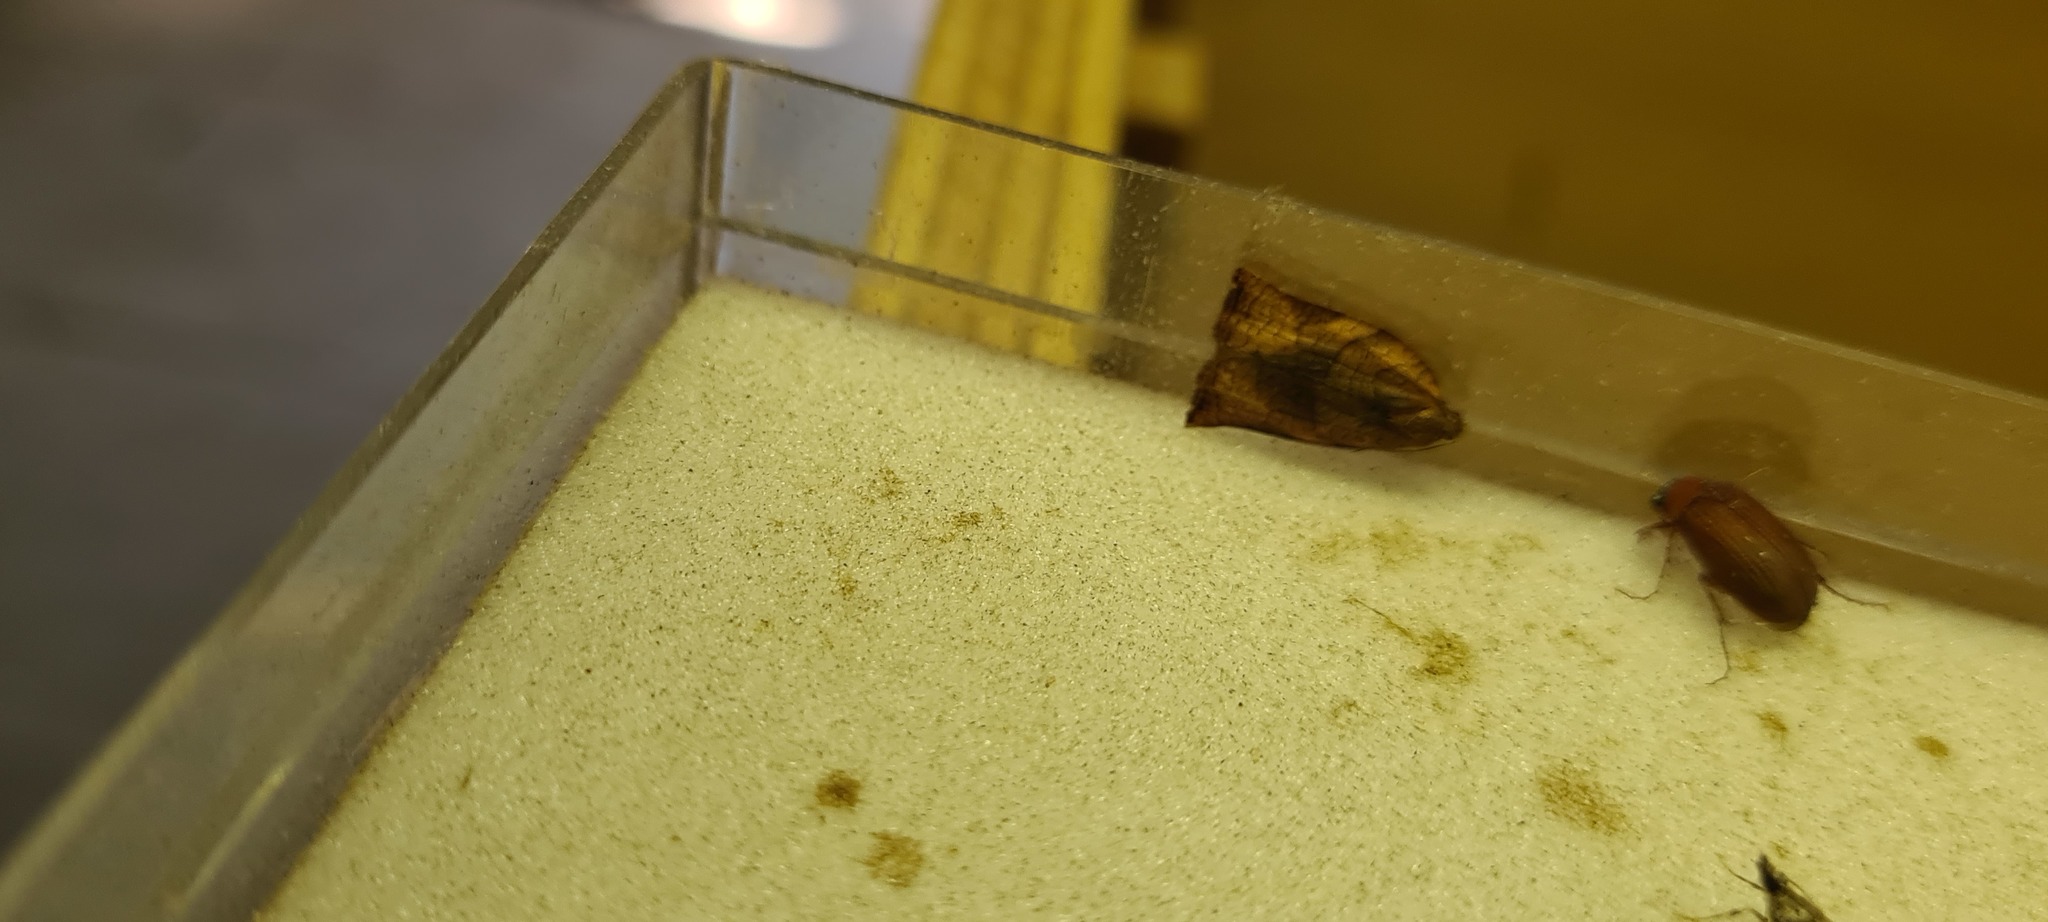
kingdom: Animalia
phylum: Arthropoda
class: Insecta
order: Lepidoptera
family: Tortricidae
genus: Archips
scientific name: Archips podana
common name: Large fruit-tree tortrix
